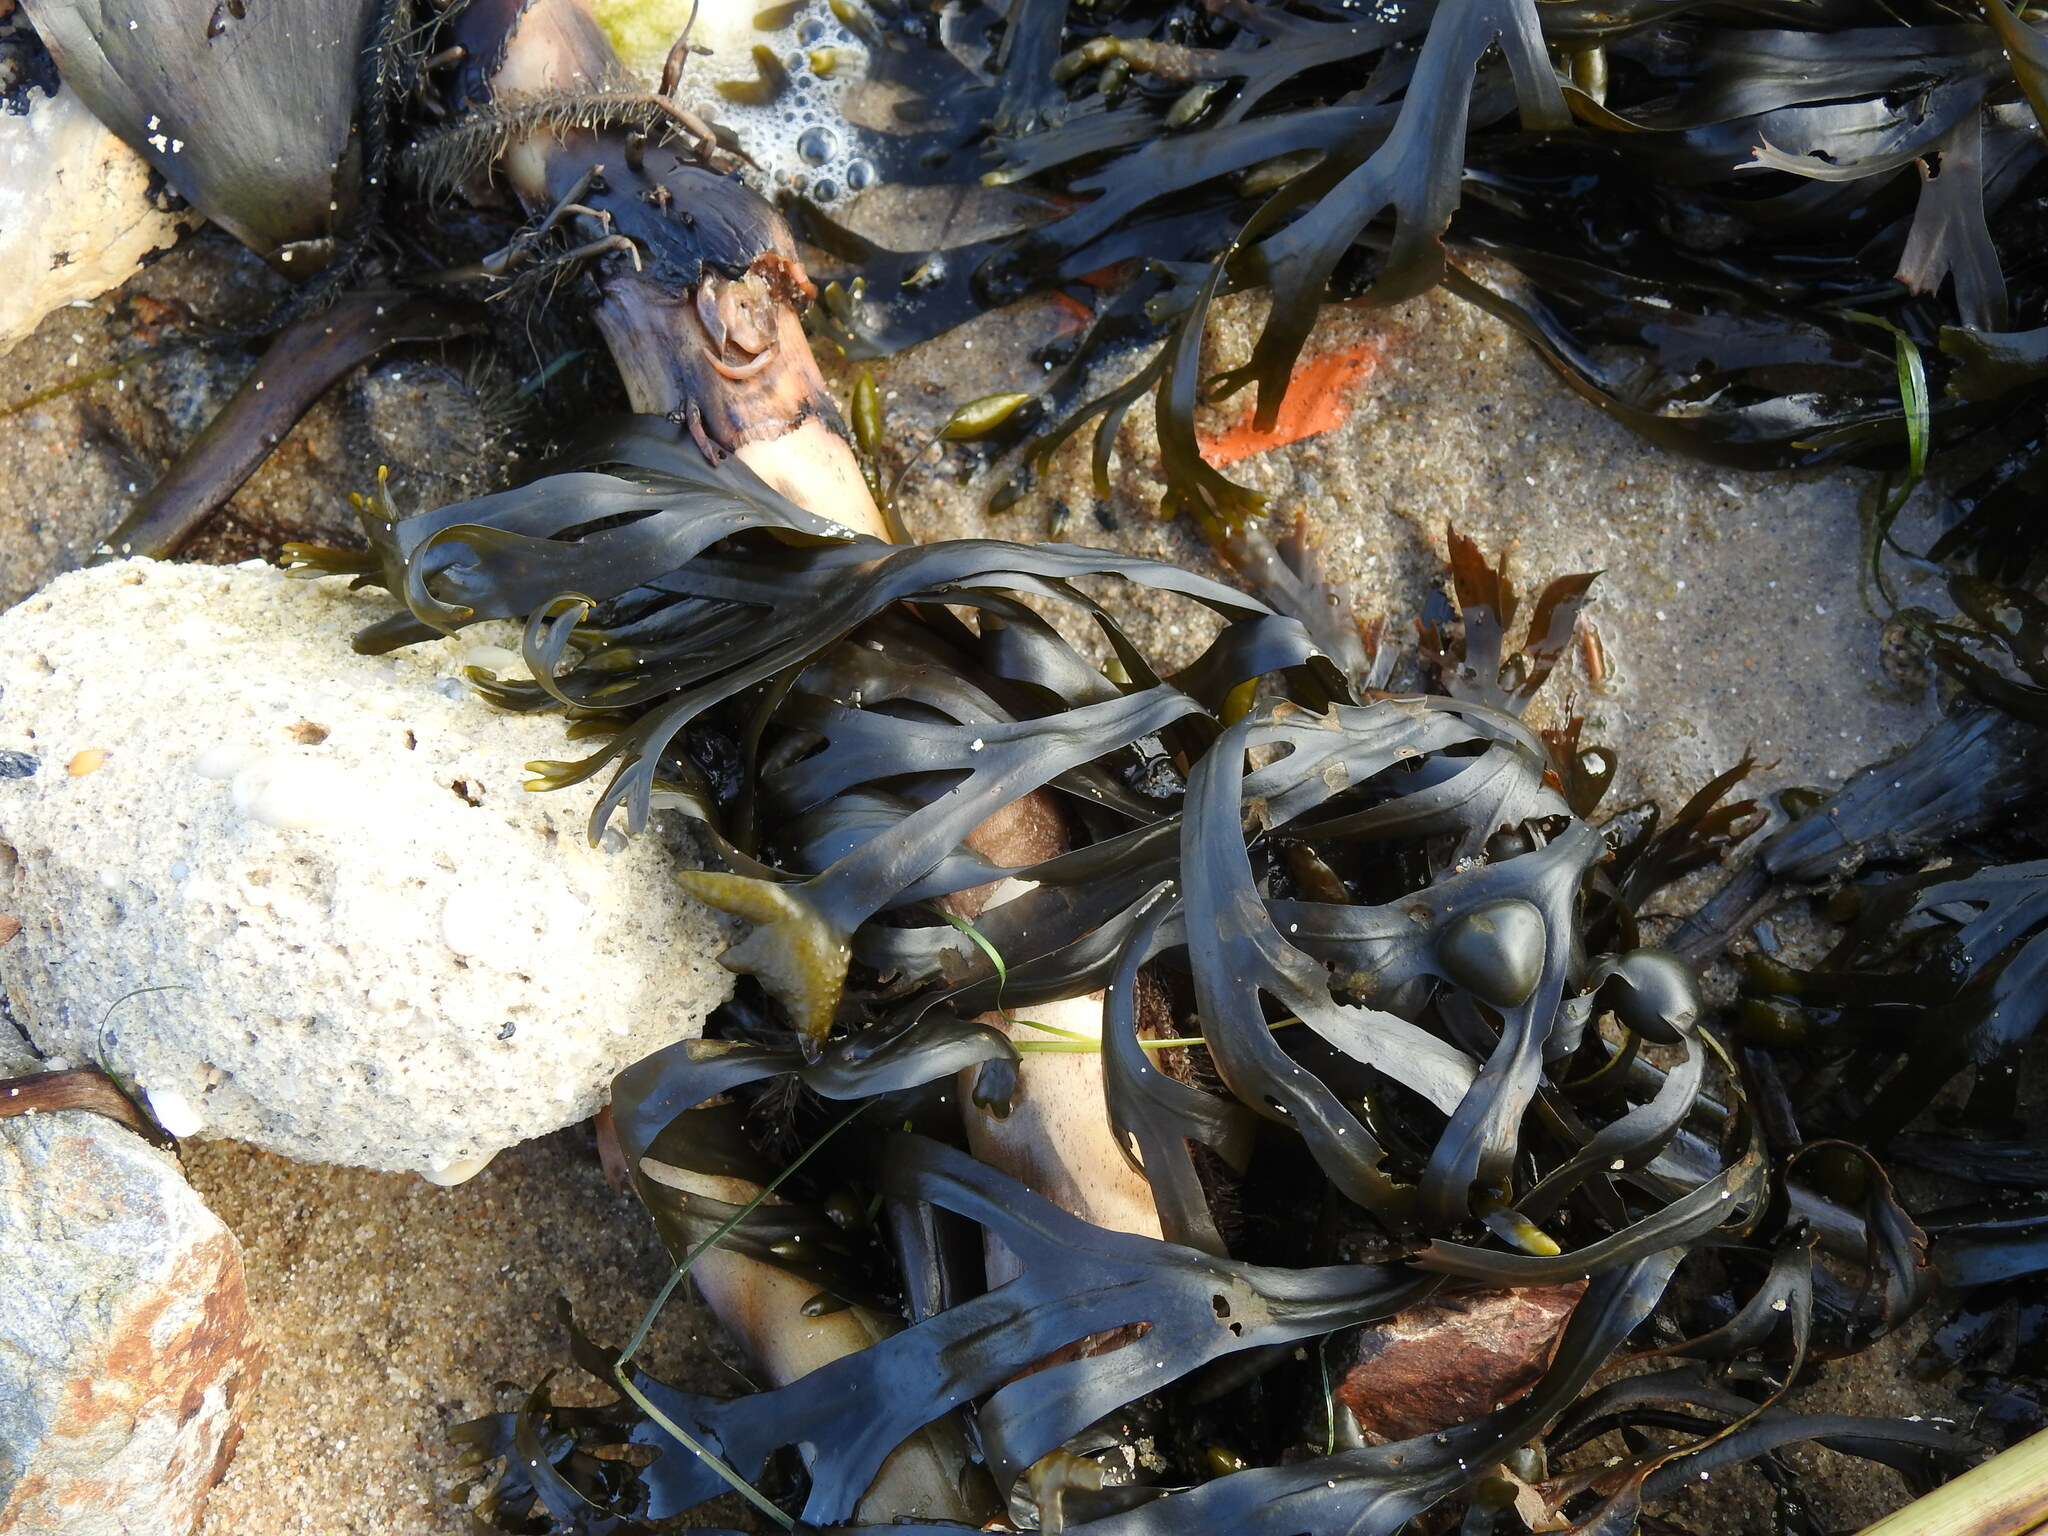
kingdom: Chromista
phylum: Ochrophyta
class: Phaeophyceae
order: Fucales
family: Fucaceae
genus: Fucus
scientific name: Fucus vesiculosus
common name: Bladder wrack
